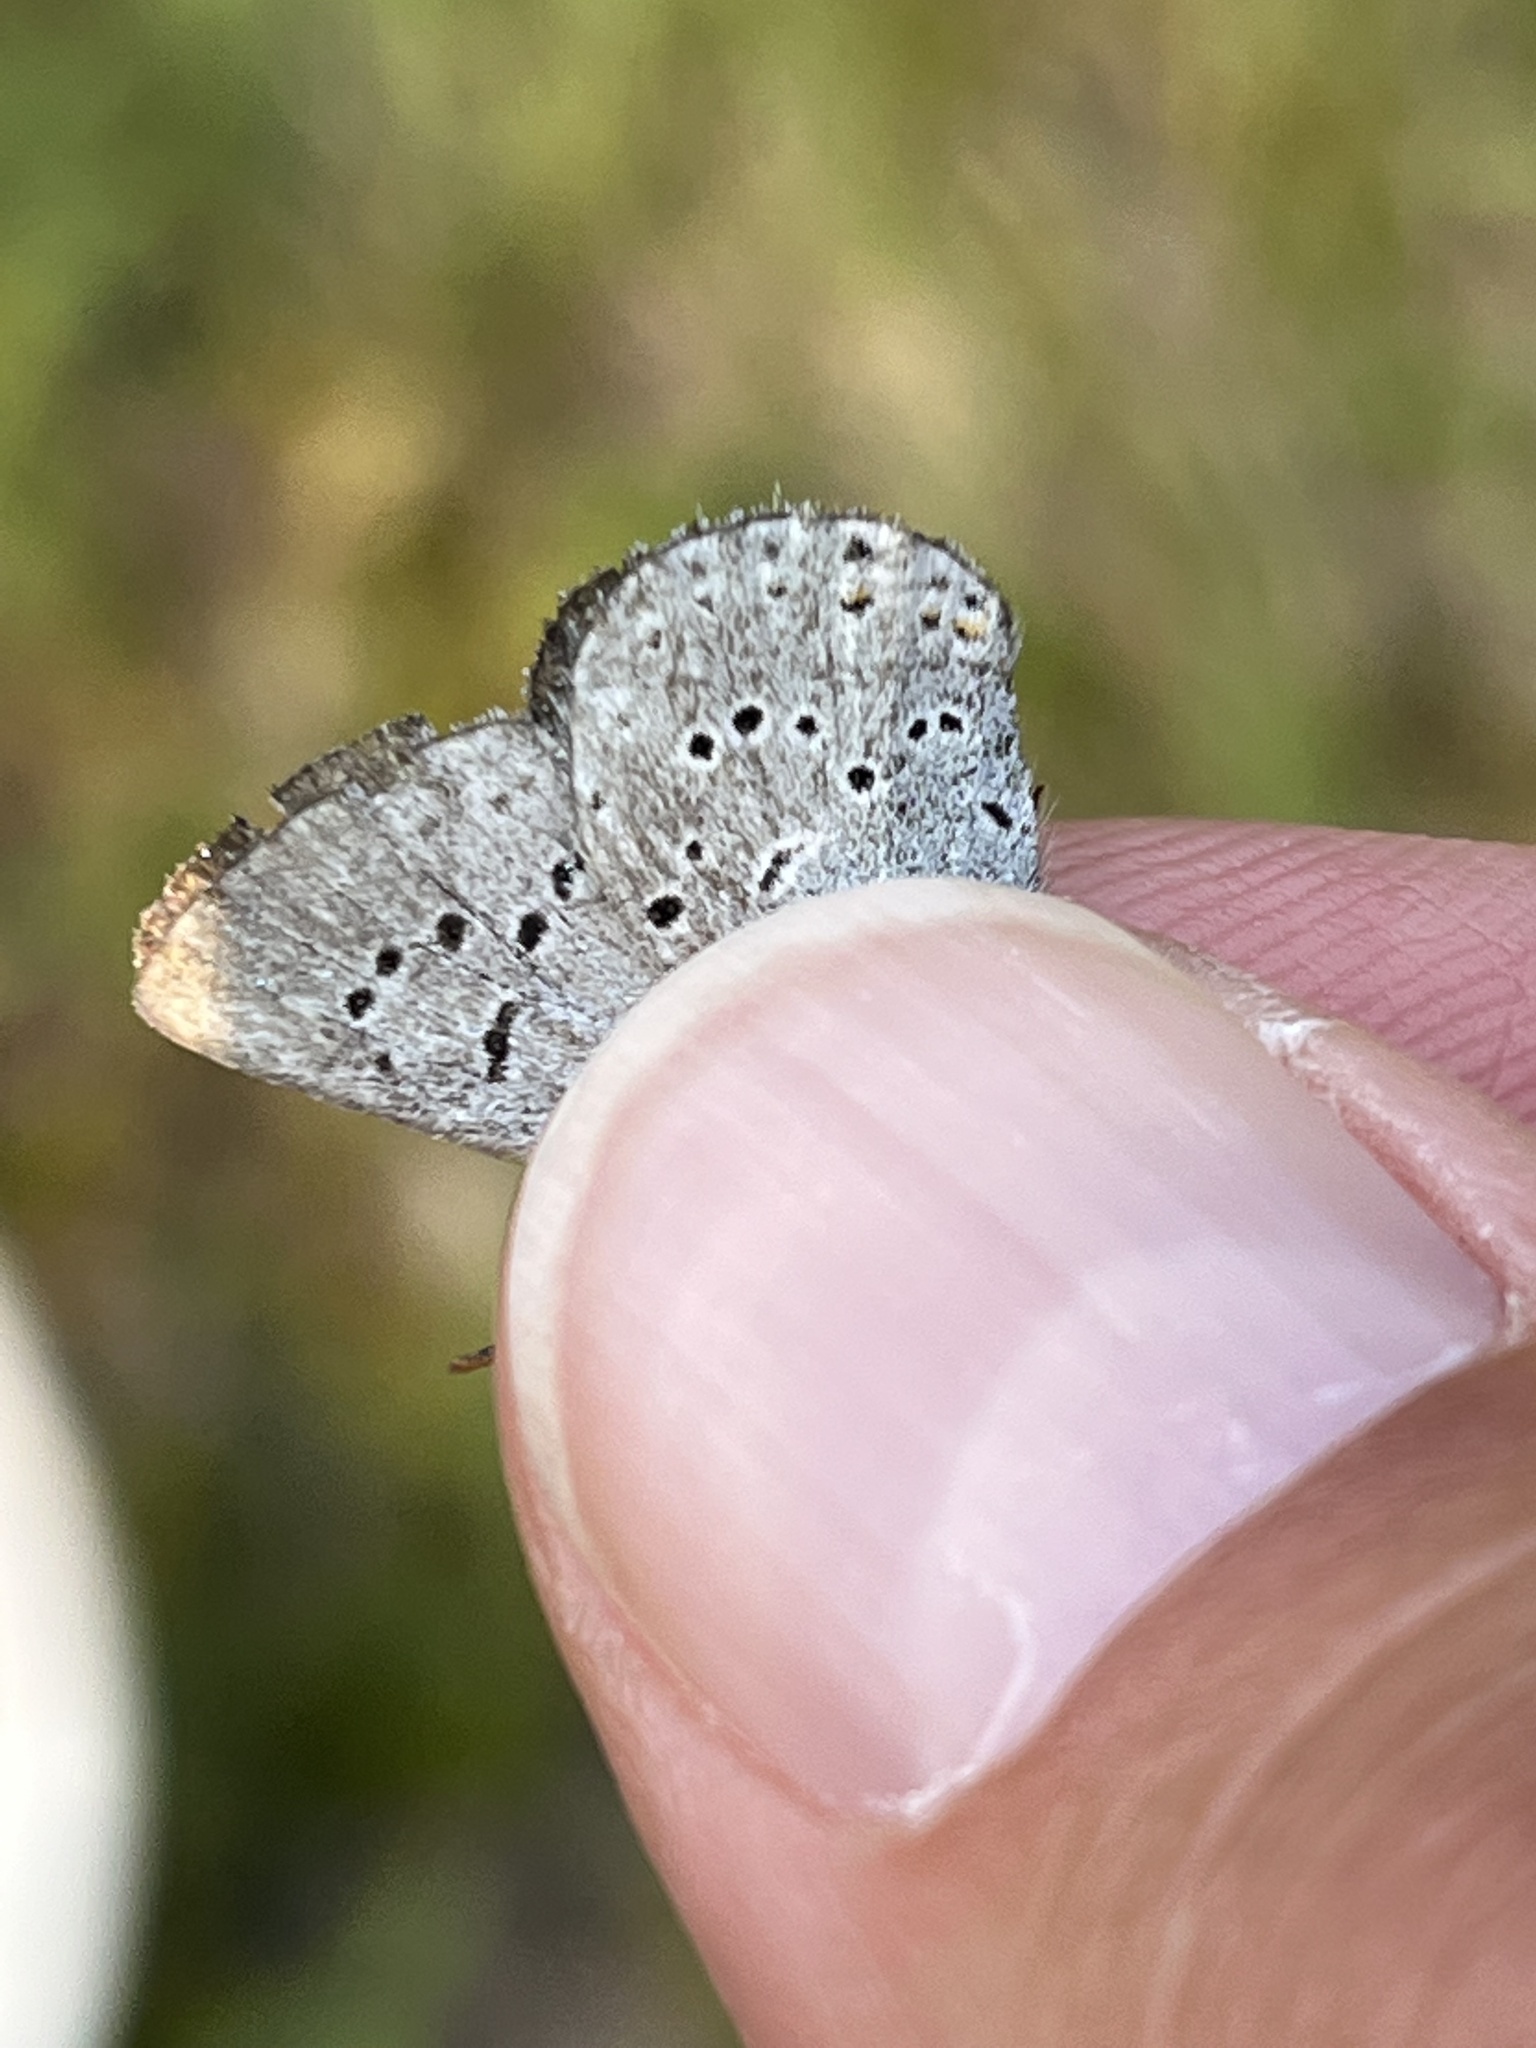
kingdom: Animalia
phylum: Arthropoda
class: Insecta
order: Lepidoptera
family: Lycaenidae
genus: Icaricia
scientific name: Icaricia saepiolus
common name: Greenish blue
